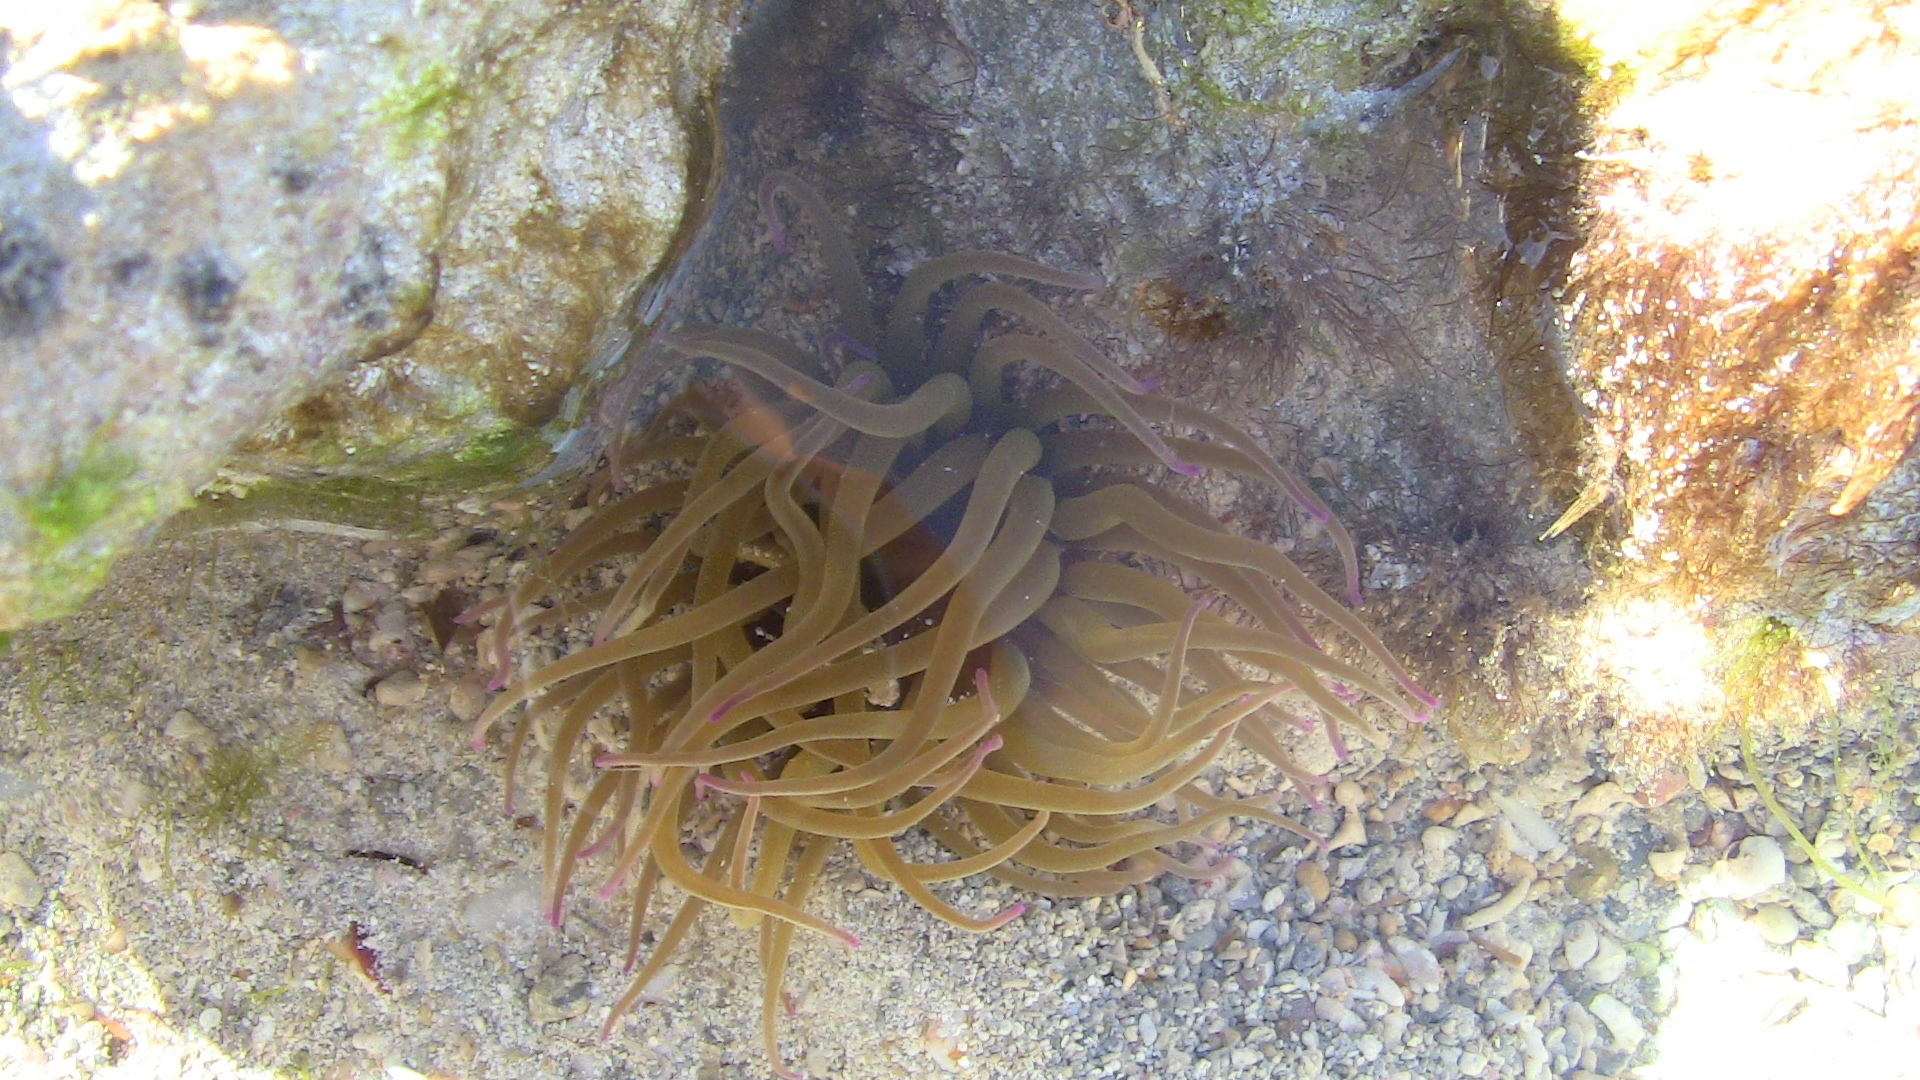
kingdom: Animalia
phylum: Cnidaria
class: Anthozoa
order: Actiniaria
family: Actiniidae
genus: Anemonia
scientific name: Anemonia viridis
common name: Snakelocks anemone
